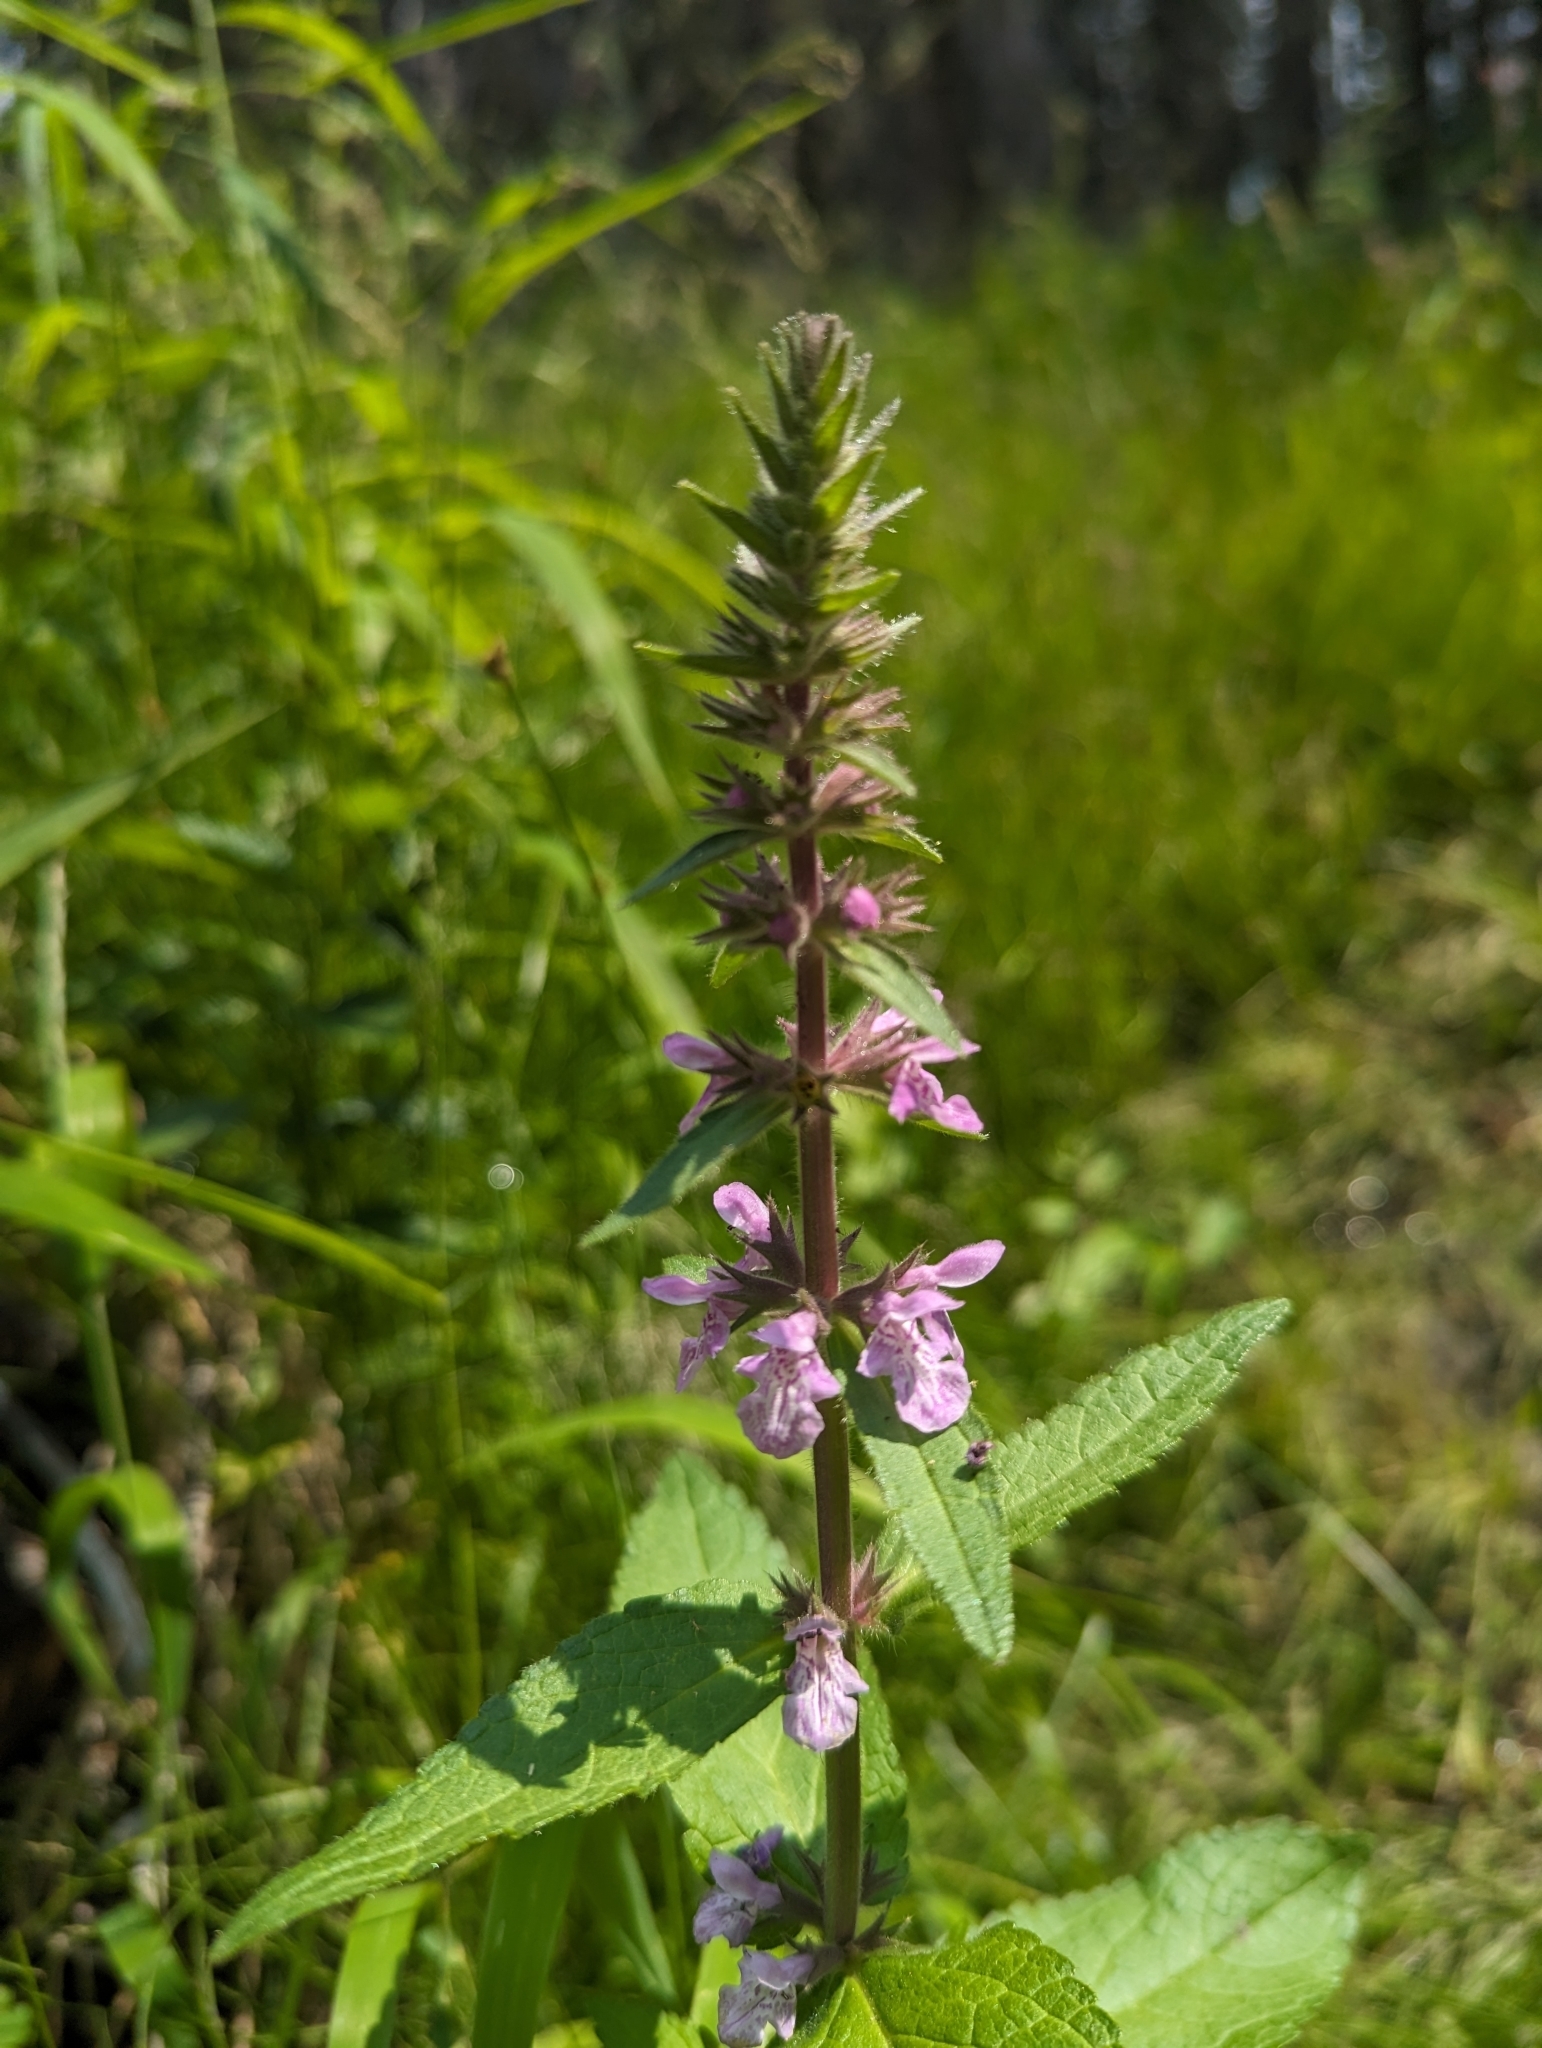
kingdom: Plantae
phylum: Tracheophyta
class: Magnoliopsida
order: Lamiales
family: Lamiaceae
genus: Stachys
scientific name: Stachys pilosa
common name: Hairy hedge-nettle
